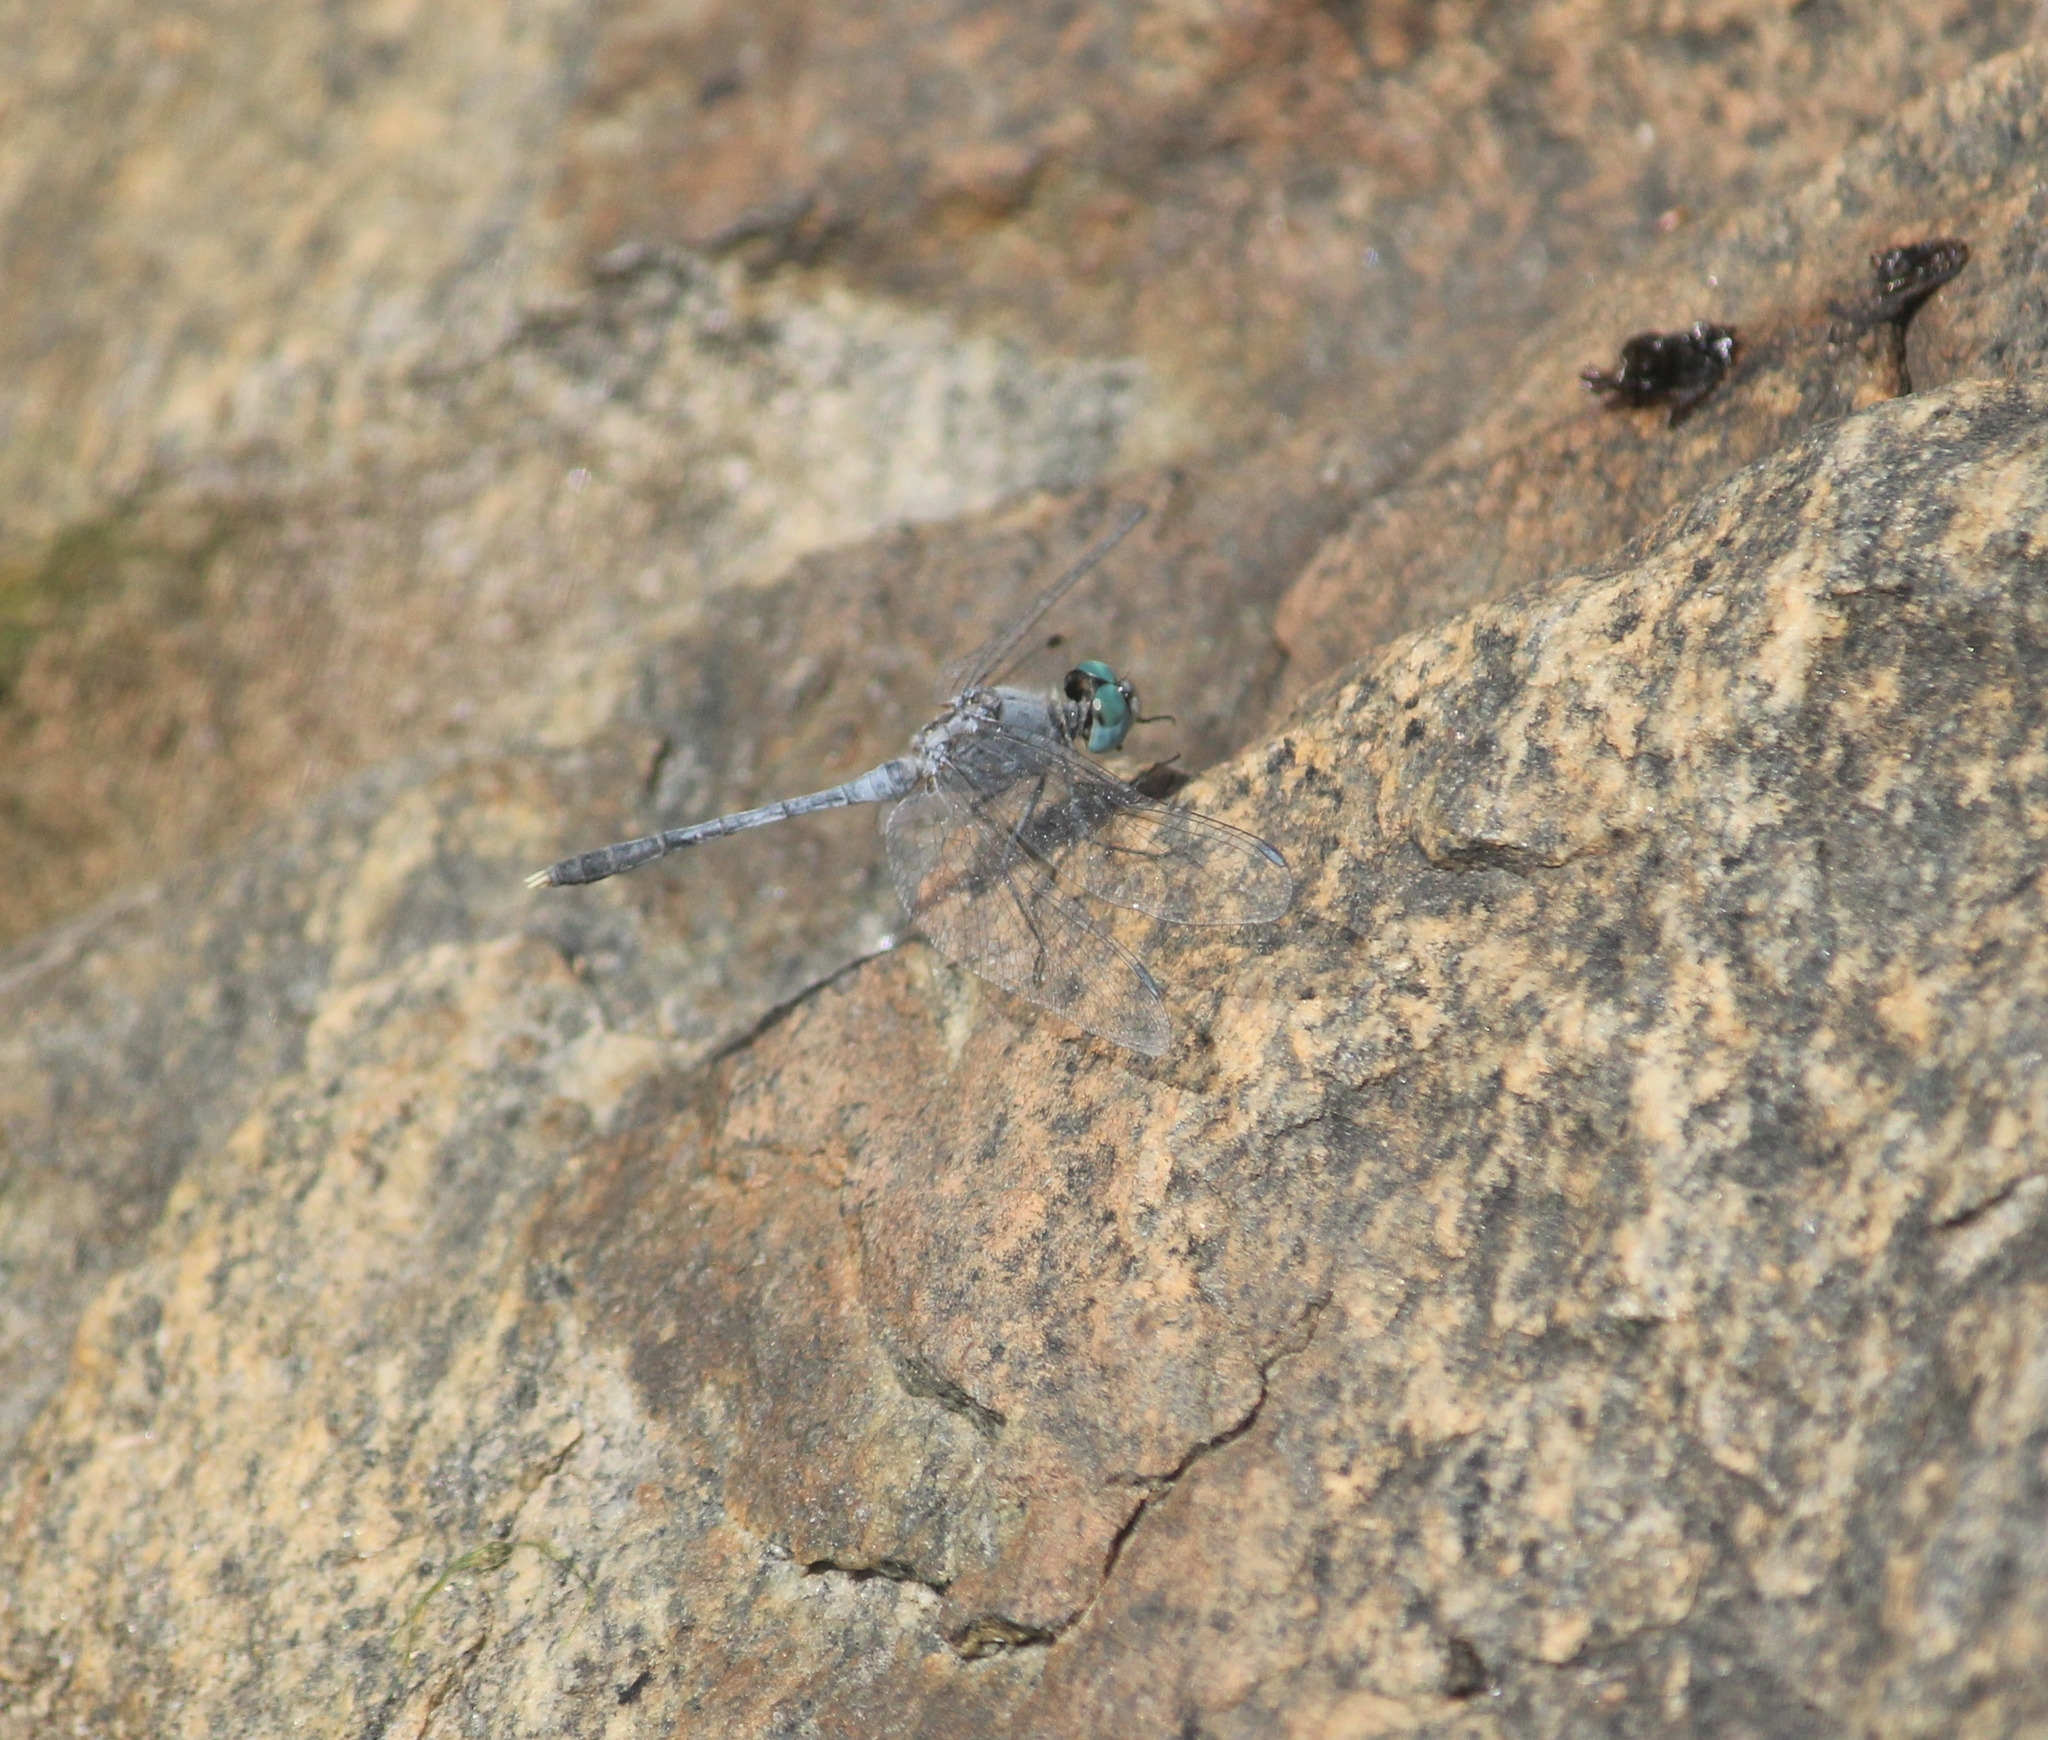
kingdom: Animalia
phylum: Arthropoda
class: Insecta
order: Odonata
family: Libellulidae
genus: Diplacodes
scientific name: Diplacodes trivialis
